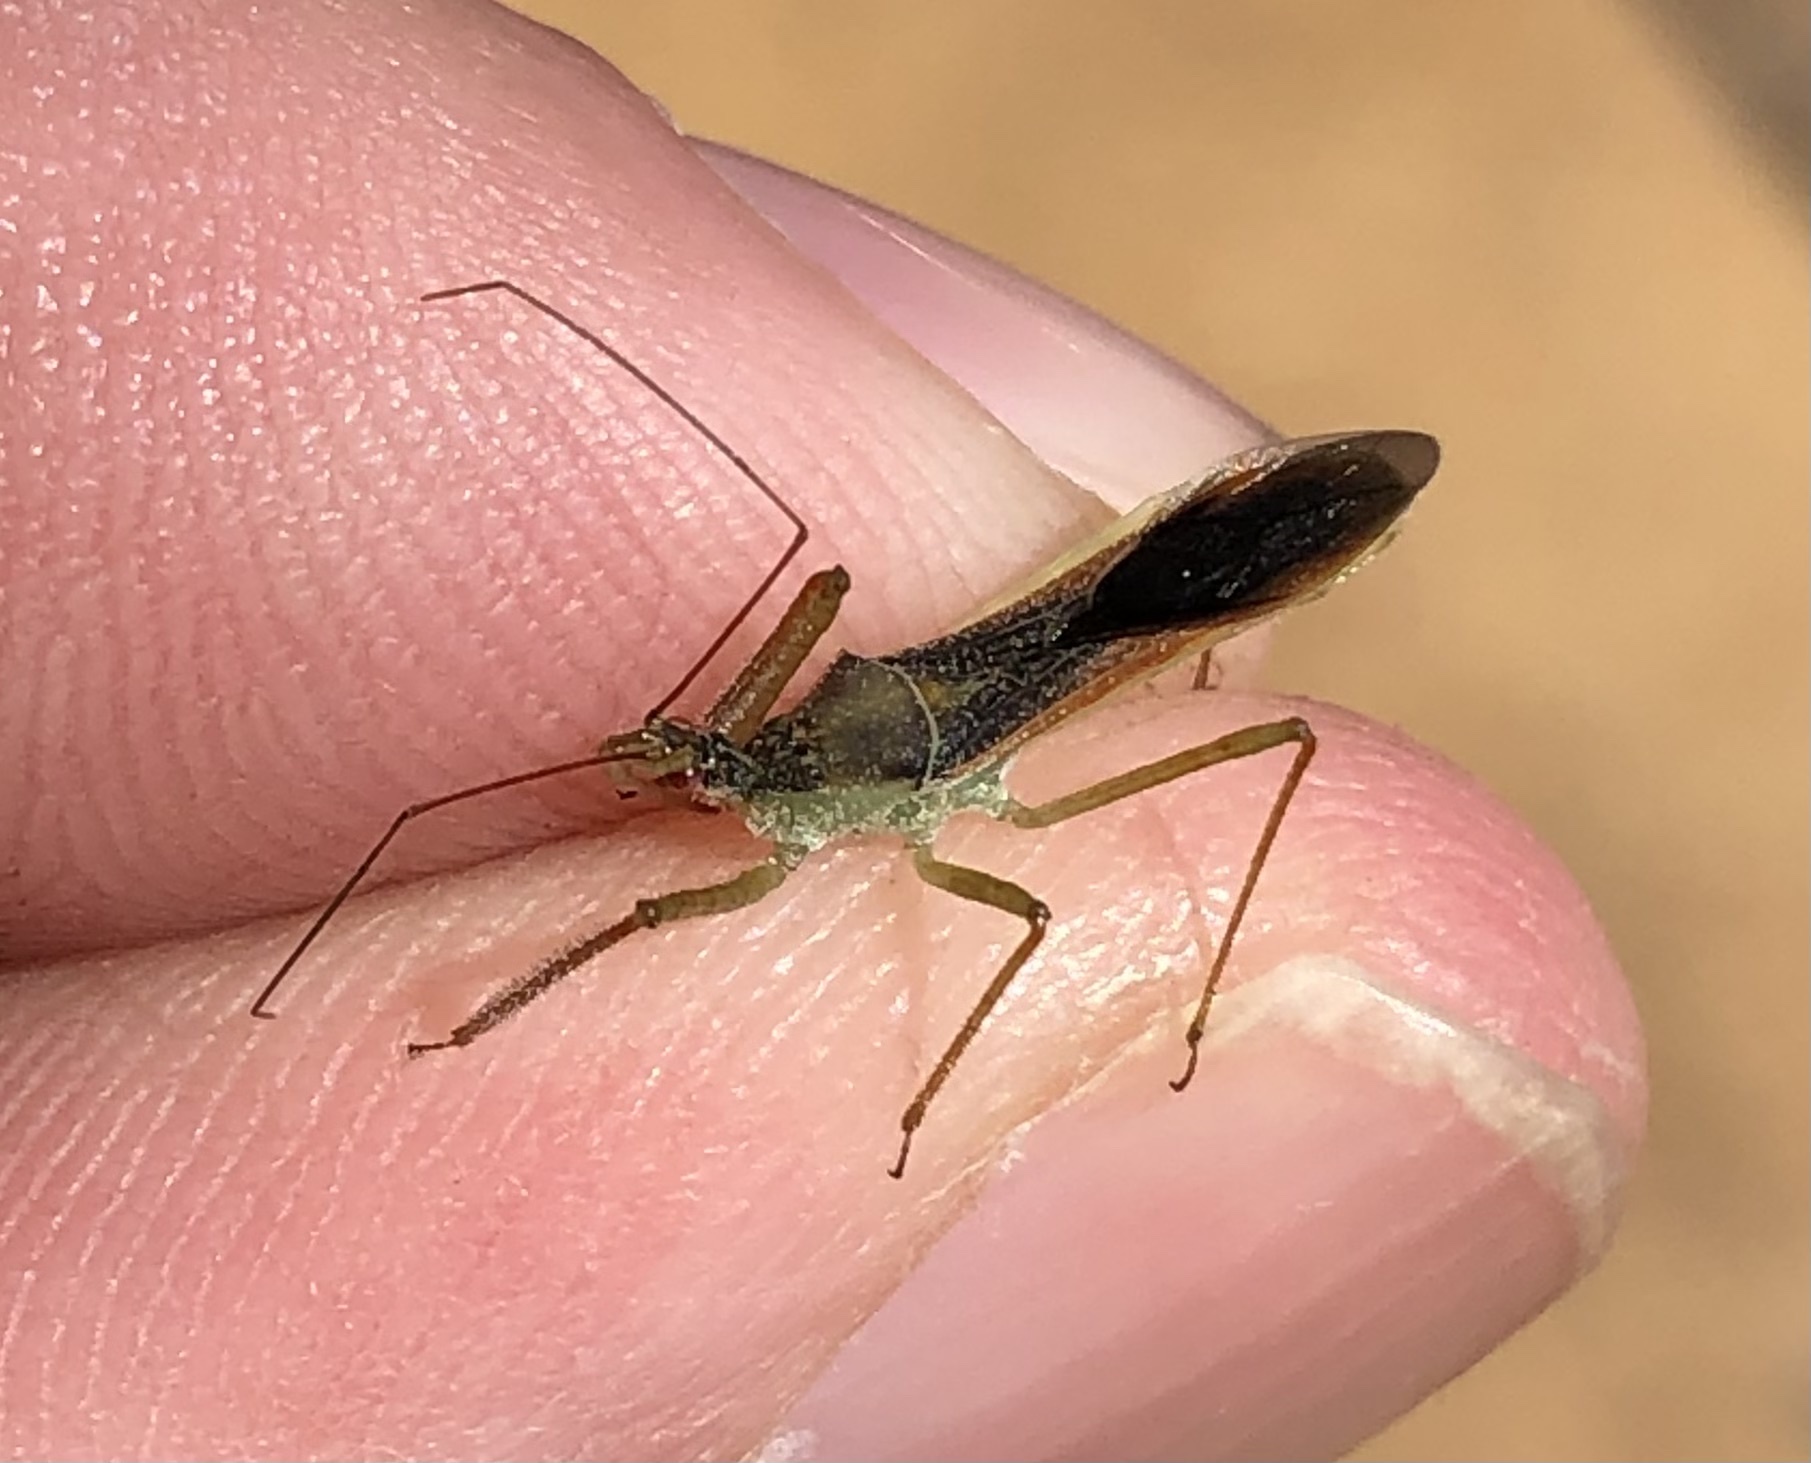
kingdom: Animalia
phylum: Arthropoda
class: Insecta
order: Hemiptera
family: Reduviidae
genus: Zelus
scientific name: Zelus renardii
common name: Assassin bug
